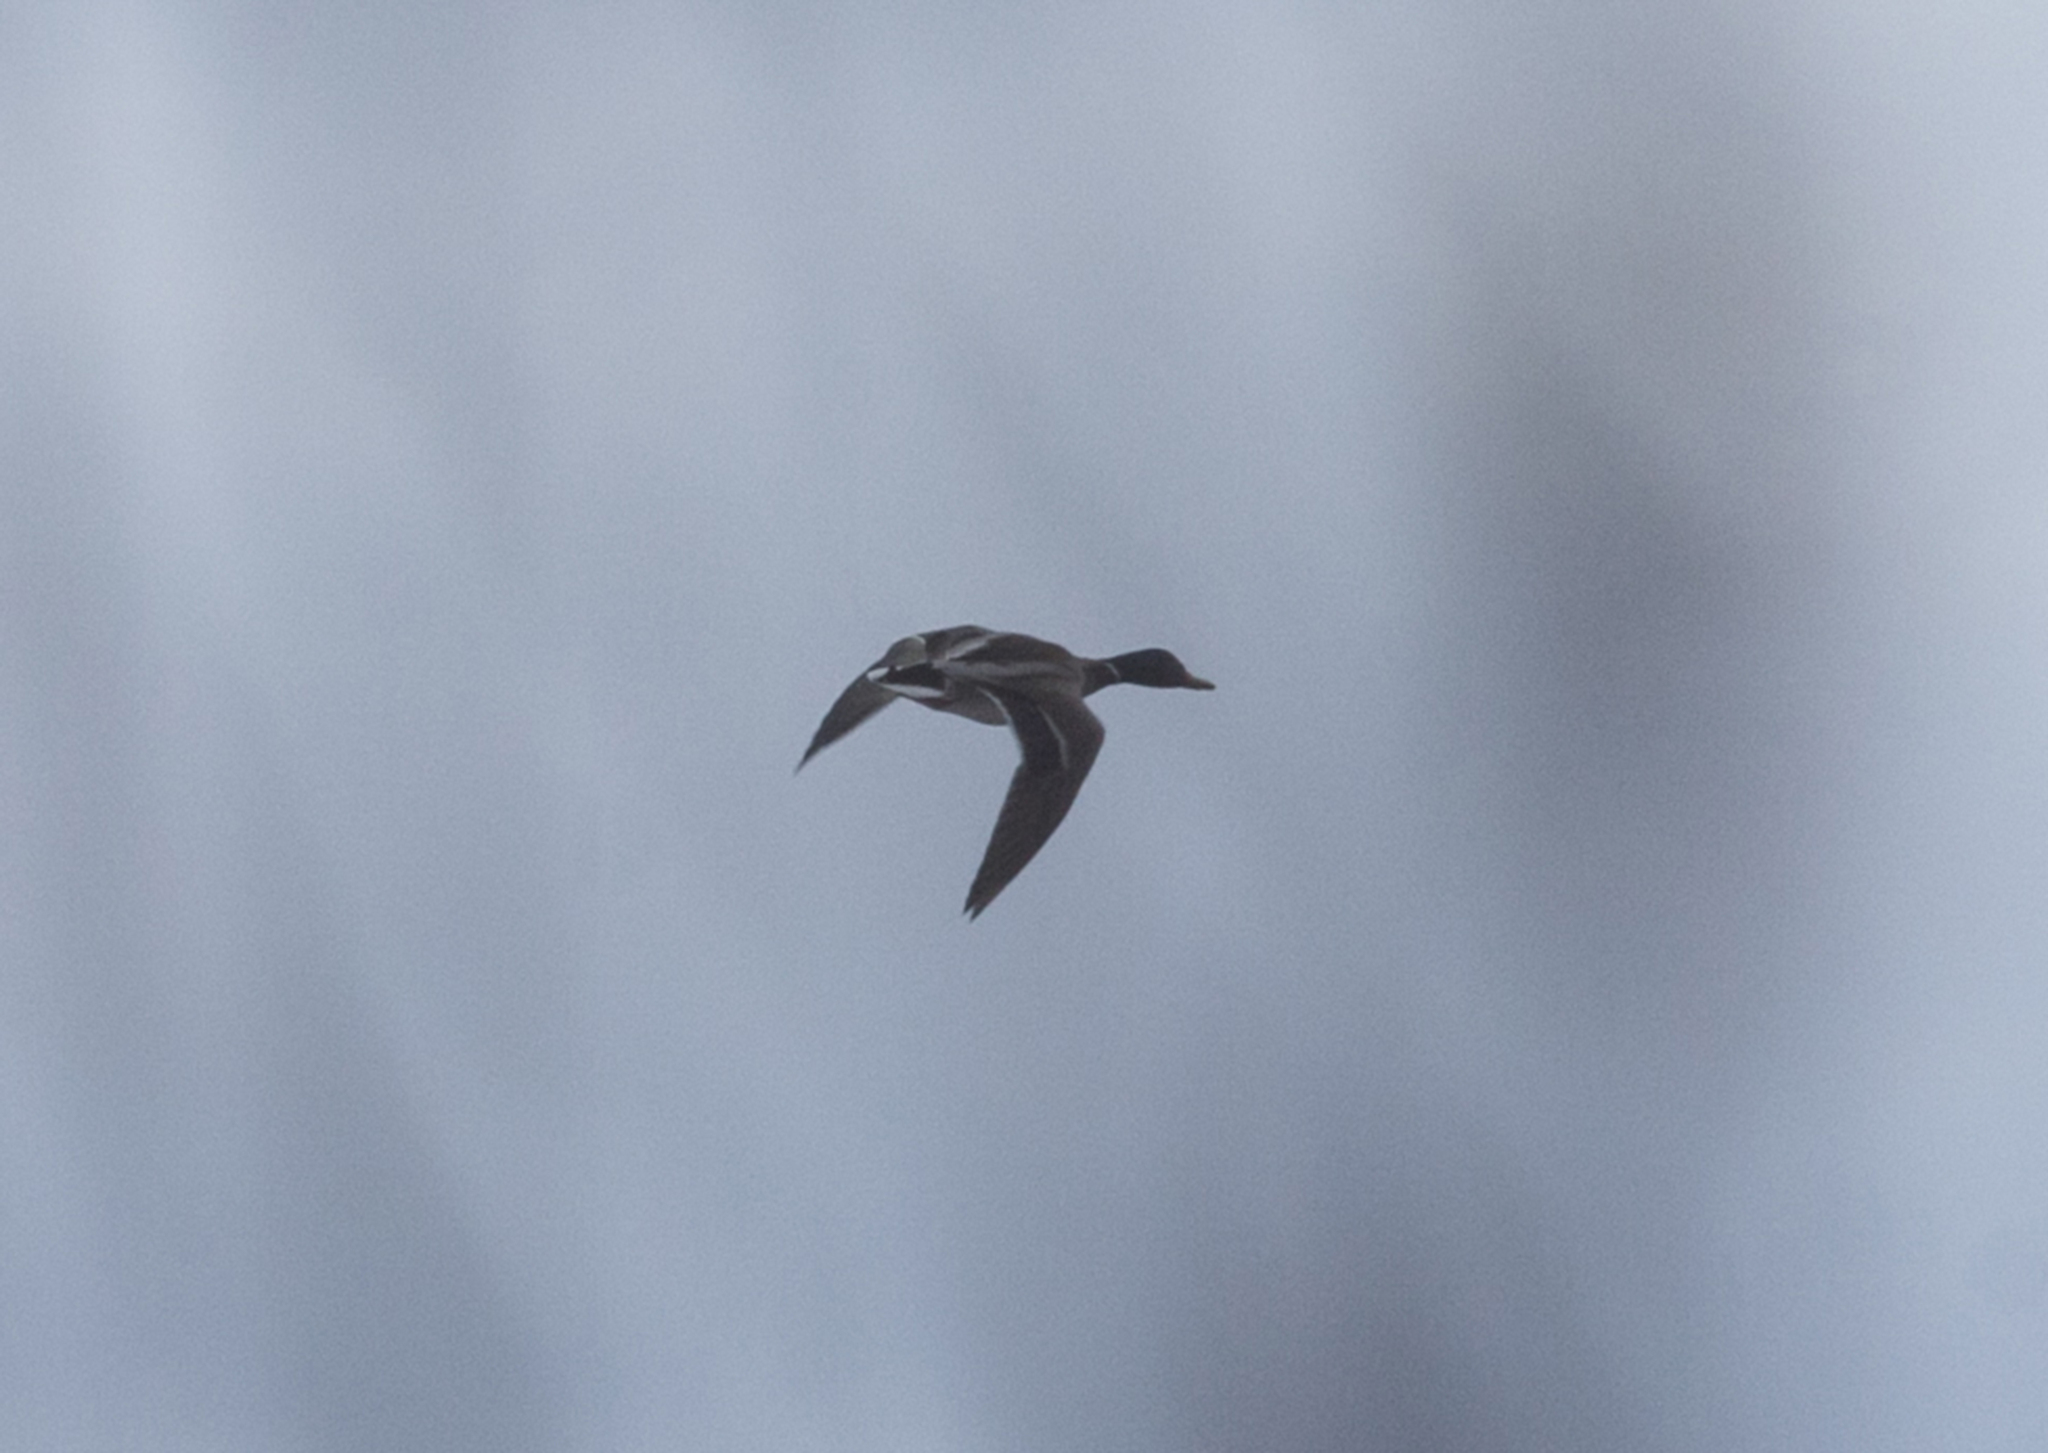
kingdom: Animalia
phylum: Chordata
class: Aves
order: Anseriformes
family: Anatidae
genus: Anas
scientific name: Anas platyrhynchos
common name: Mallard
